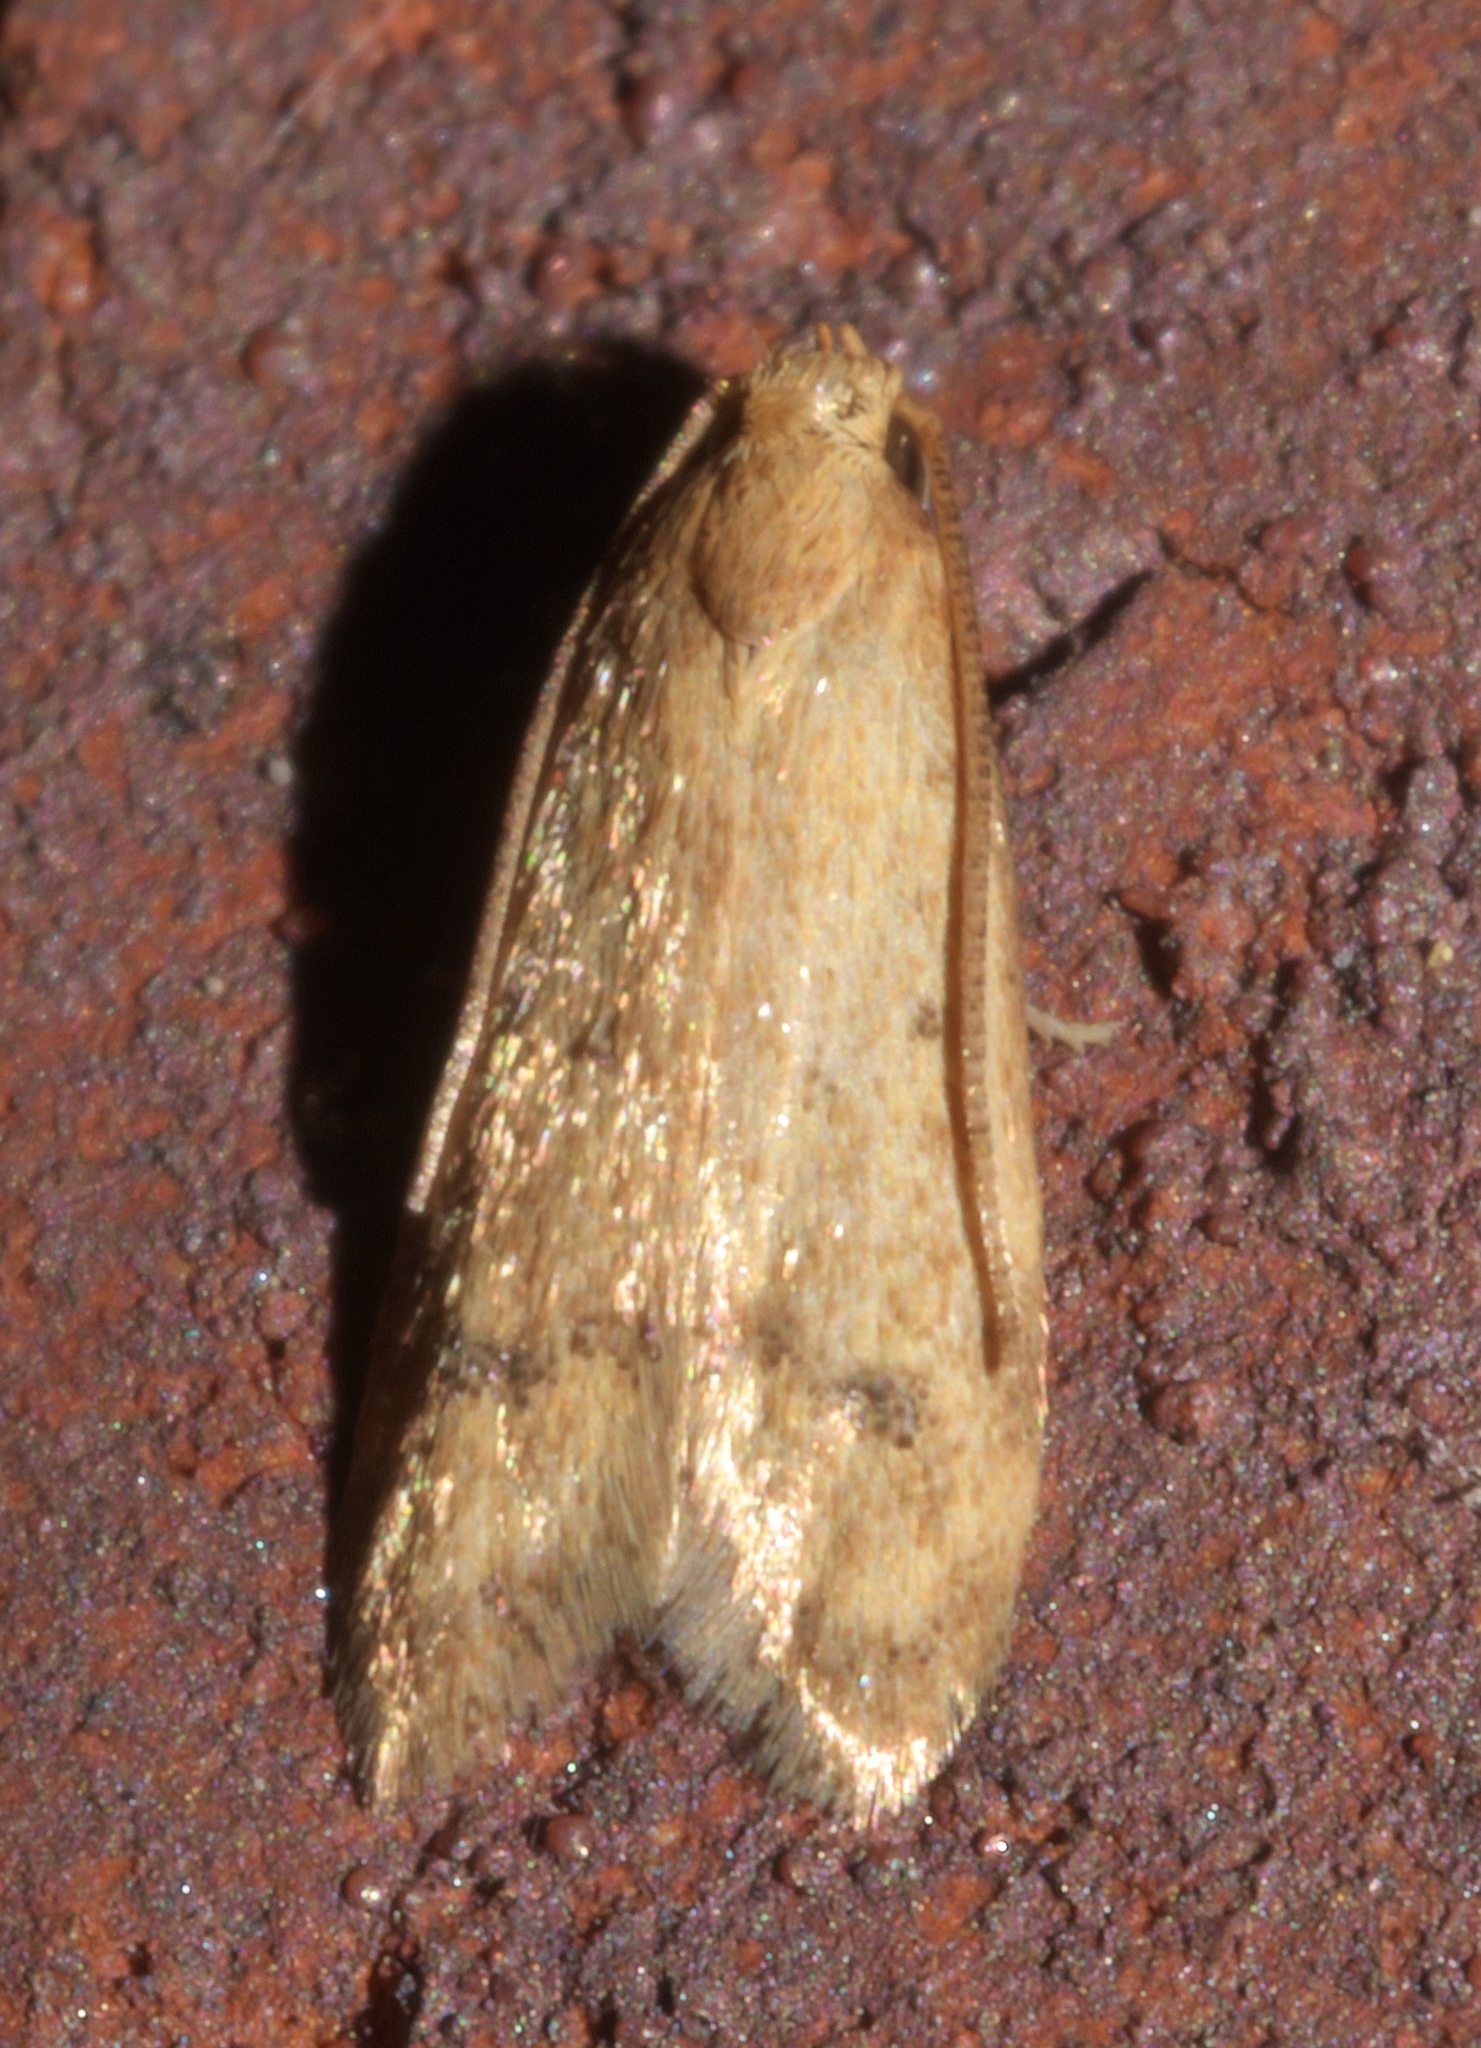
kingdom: Animalia
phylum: Arthropoda
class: Insecta
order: Lepidoptera
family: Autostichidae
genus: Gerdana
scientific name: Gerdana caritella
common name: Gerdana moth
